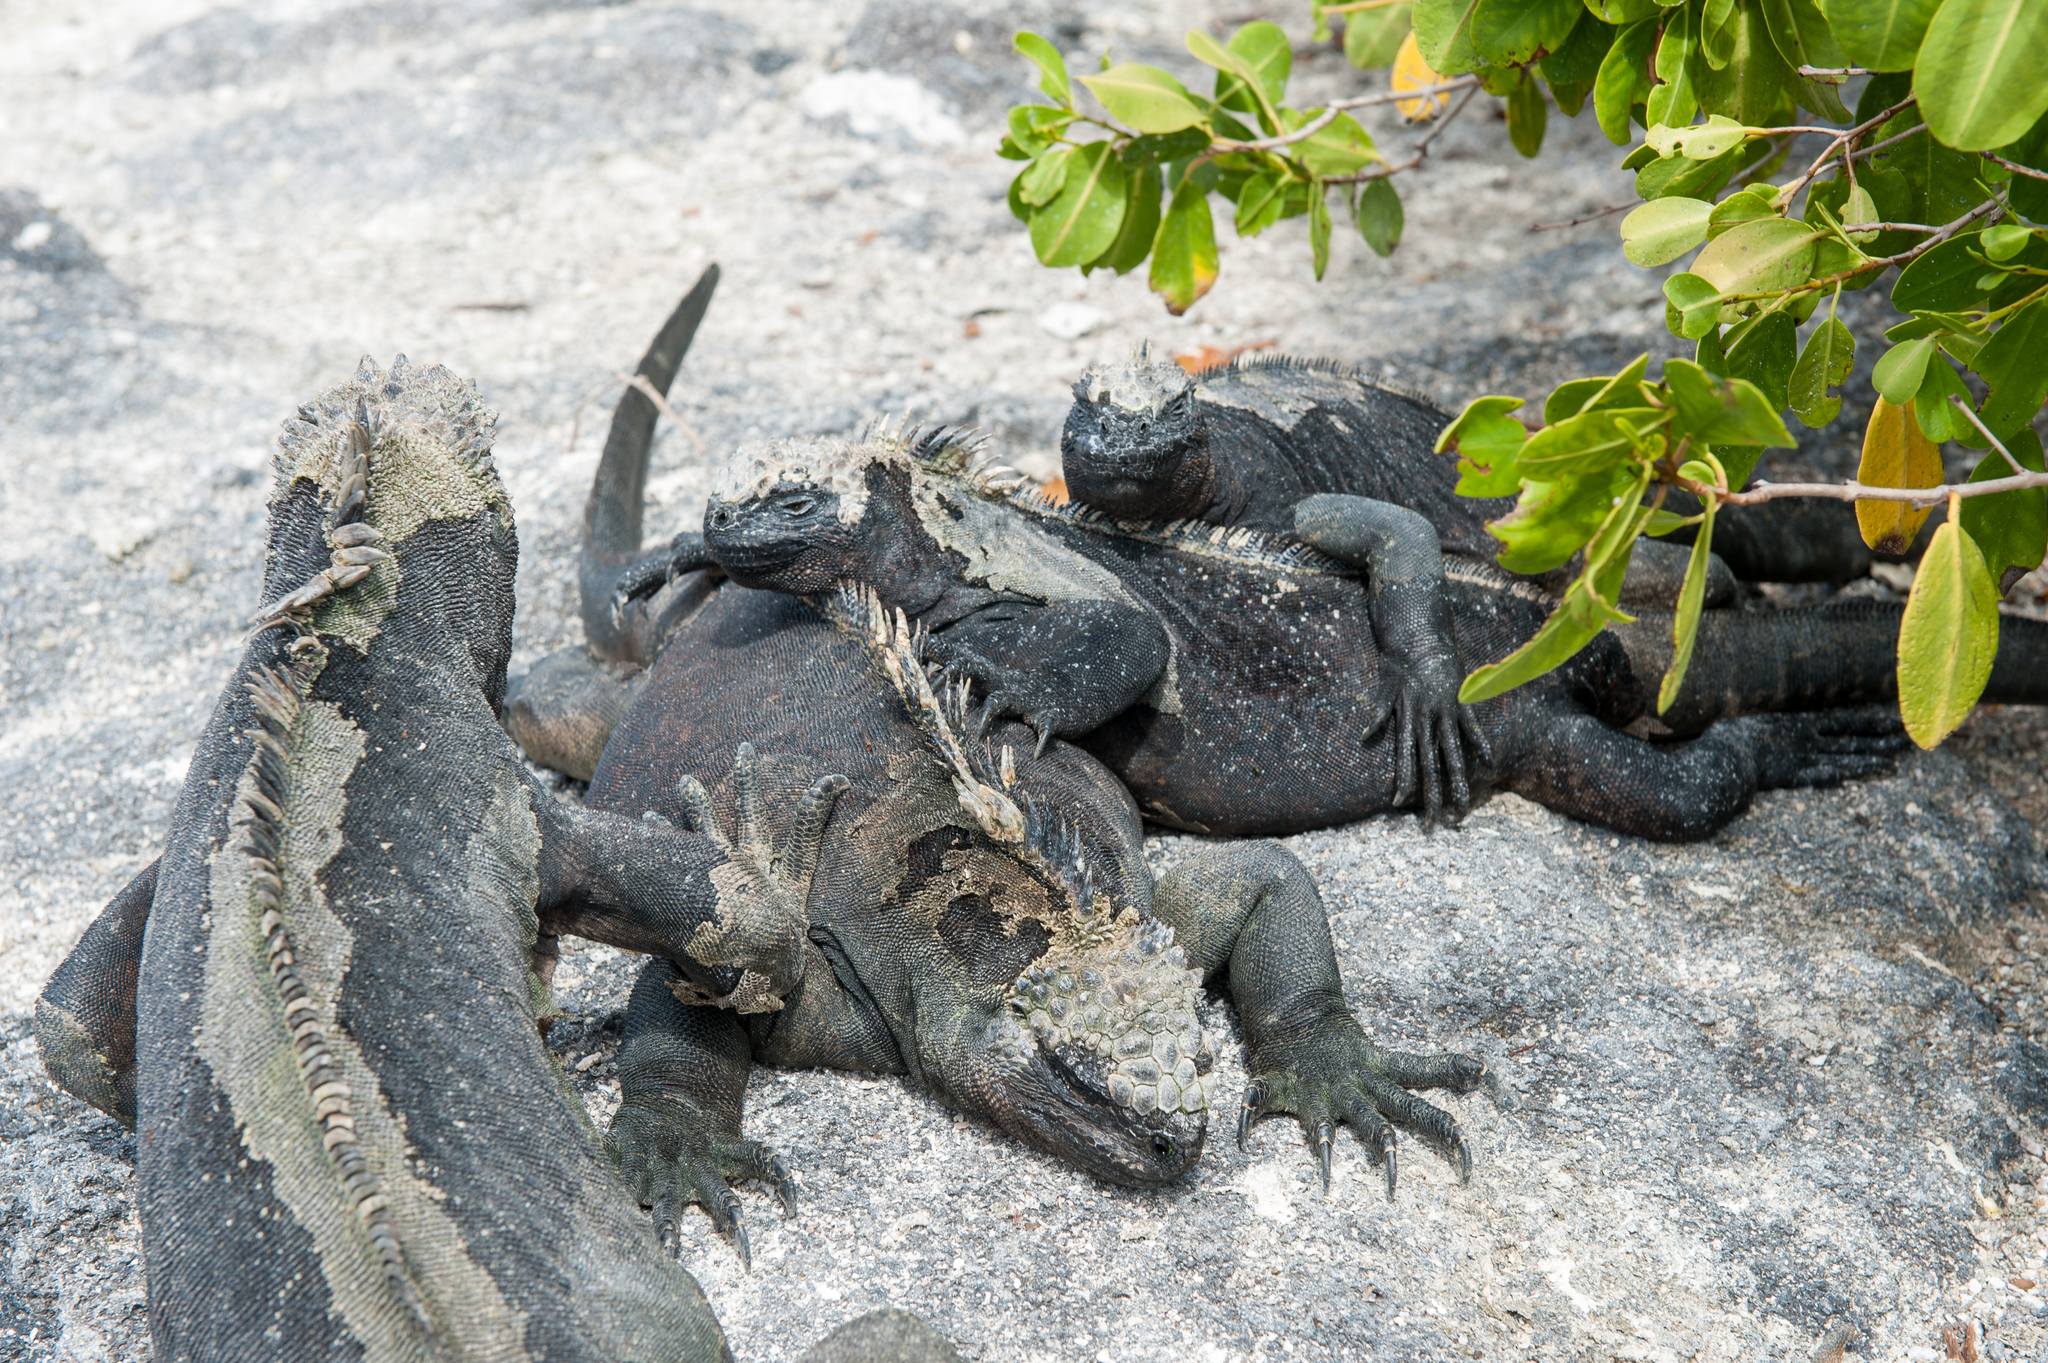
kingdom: Animalia
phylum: Chordata
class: Squamata
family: Iguanidae
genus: Amblyrhynchus
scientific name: Amblyrhynchus cristatus
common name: Marine iguana
